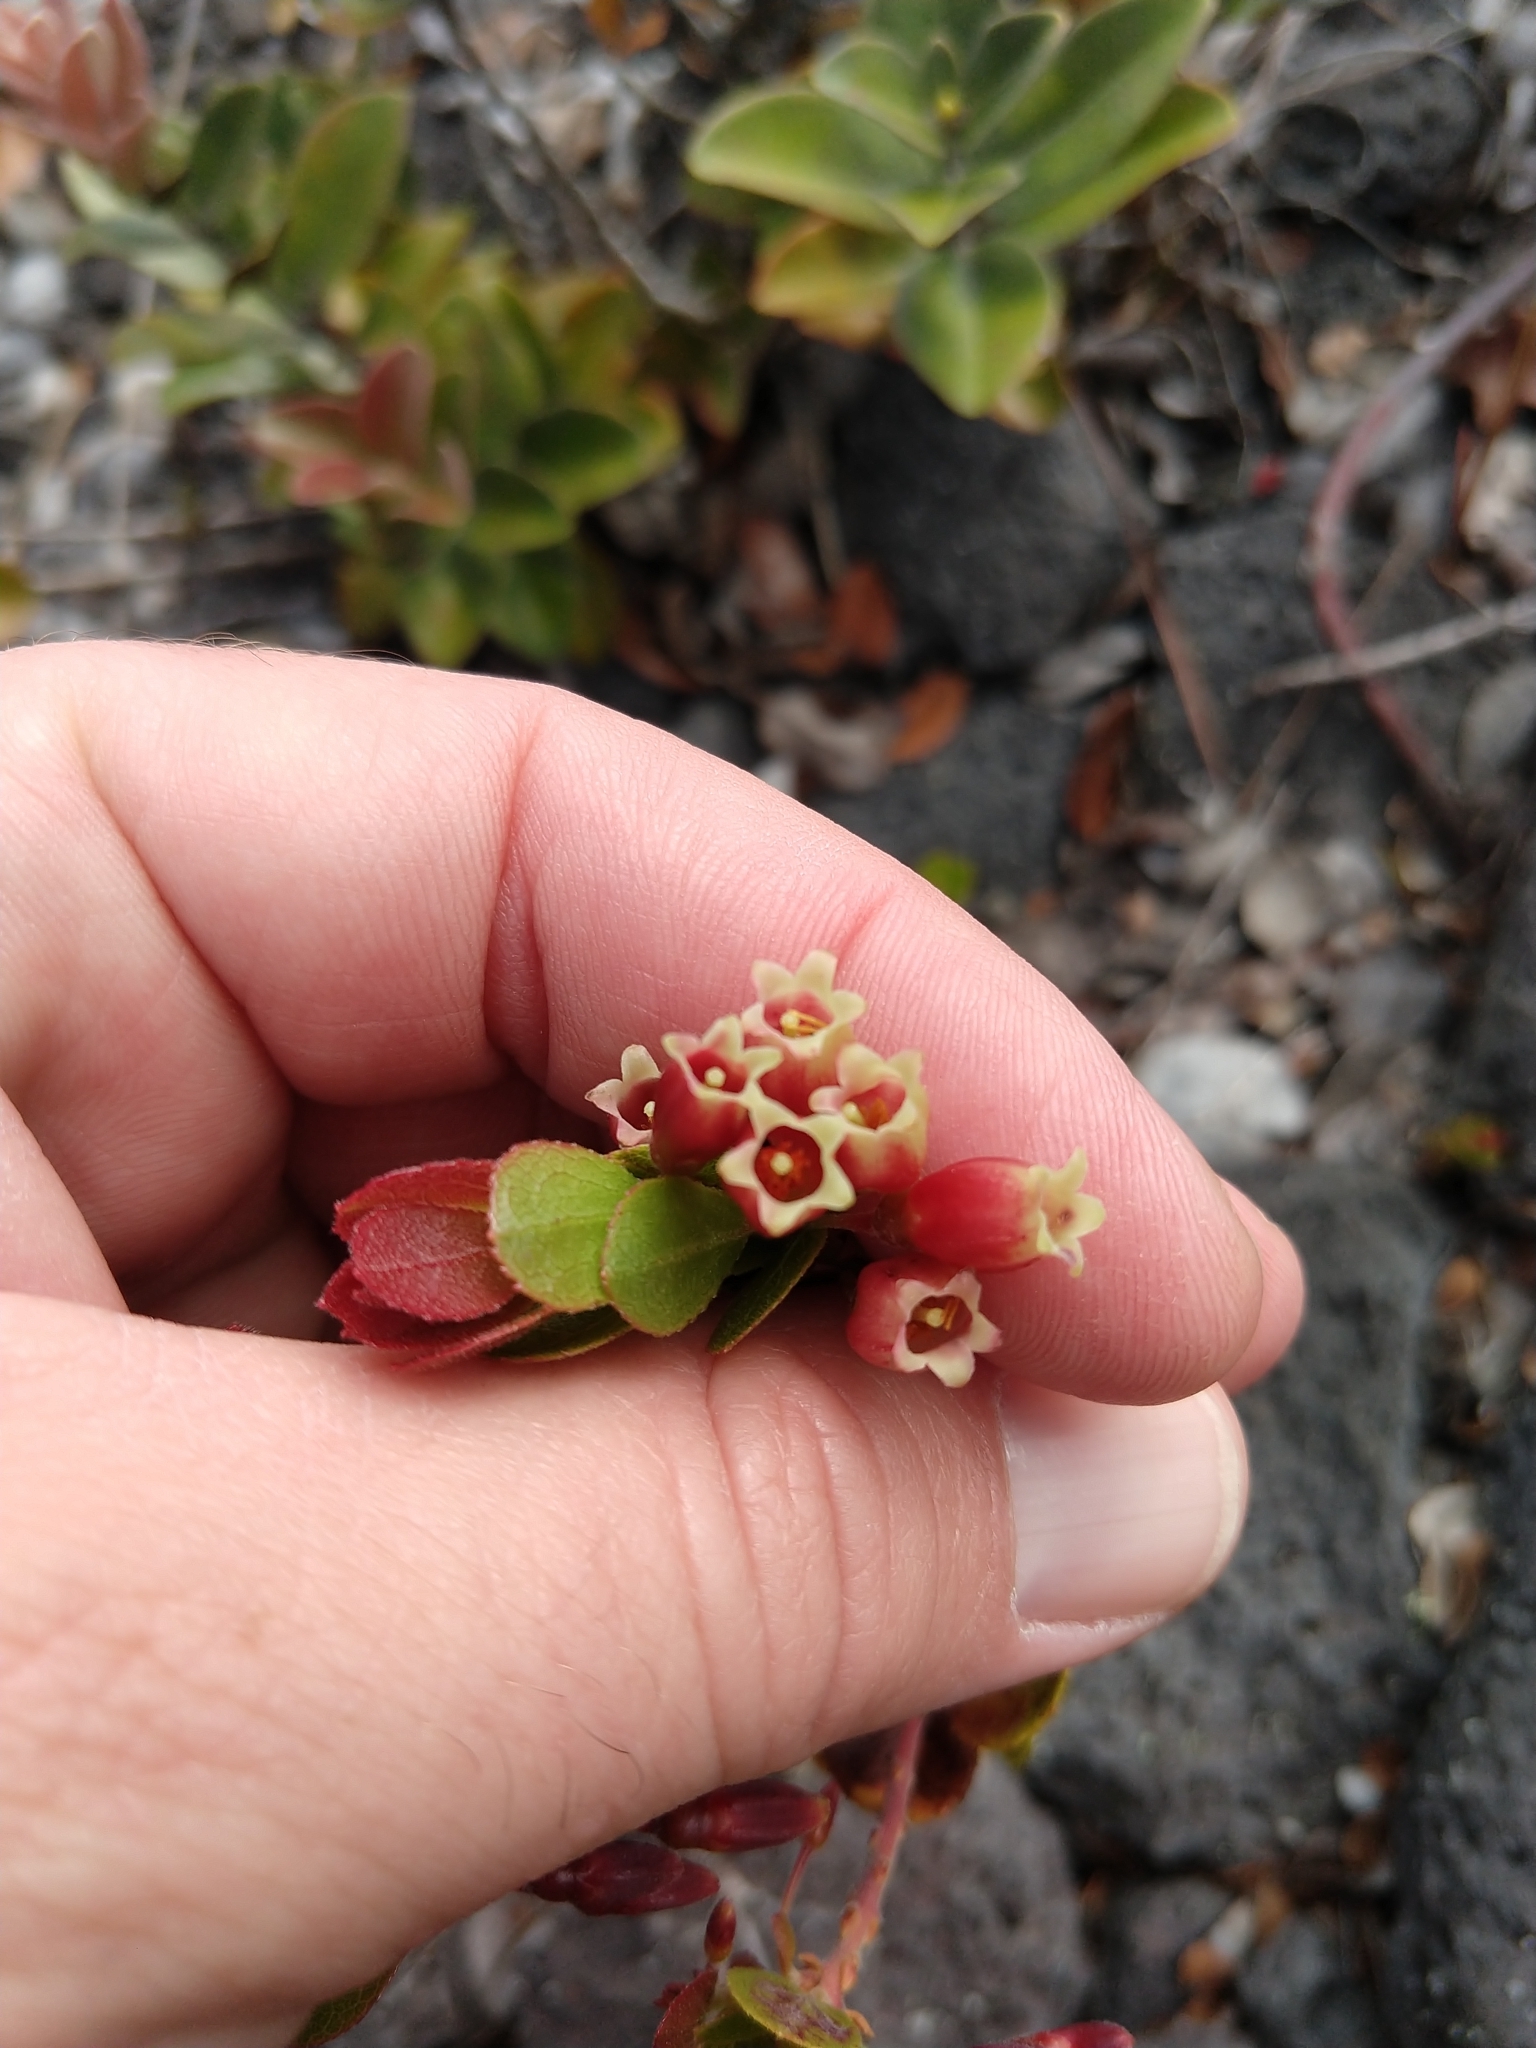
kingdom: Plantae
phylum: Tracheophyta
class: Magnoliopsida
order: Ericales
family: Ericaceae
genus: Vaccinium
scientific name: Vaccinium reticulatum
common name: Ohelo
